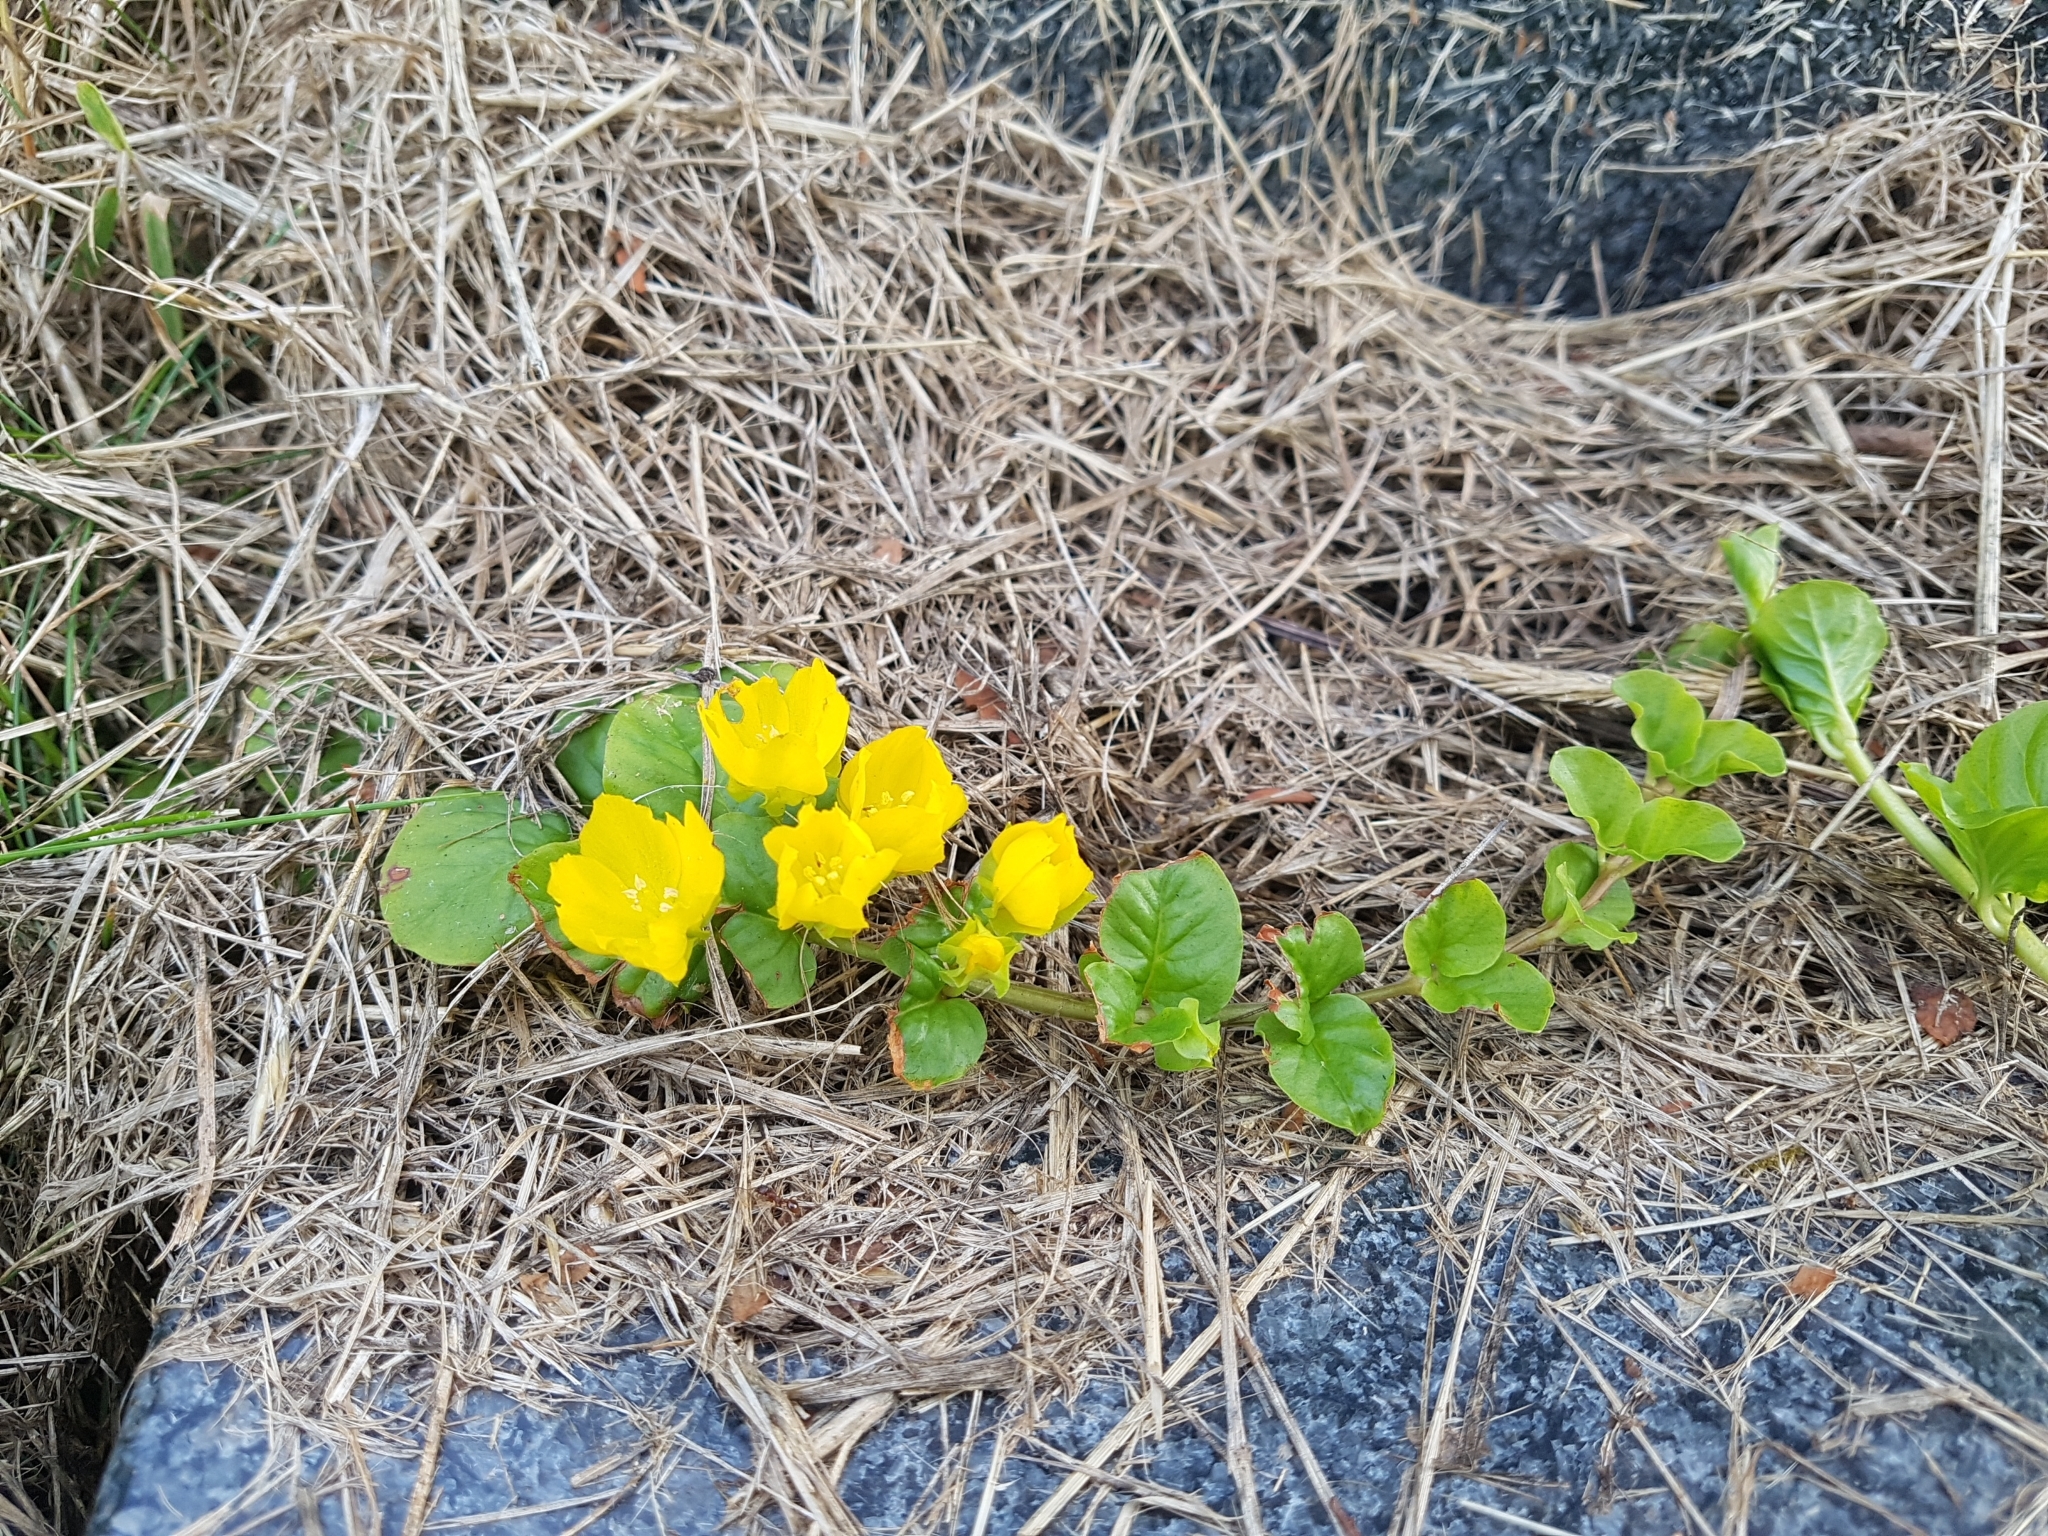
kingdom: Plantae
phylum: Tracheophyta
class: Magnoliopsida
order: Ericales
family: Primulaceae
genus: Lysimachia
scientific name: Lysimachia nummularia
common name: Moneywort
